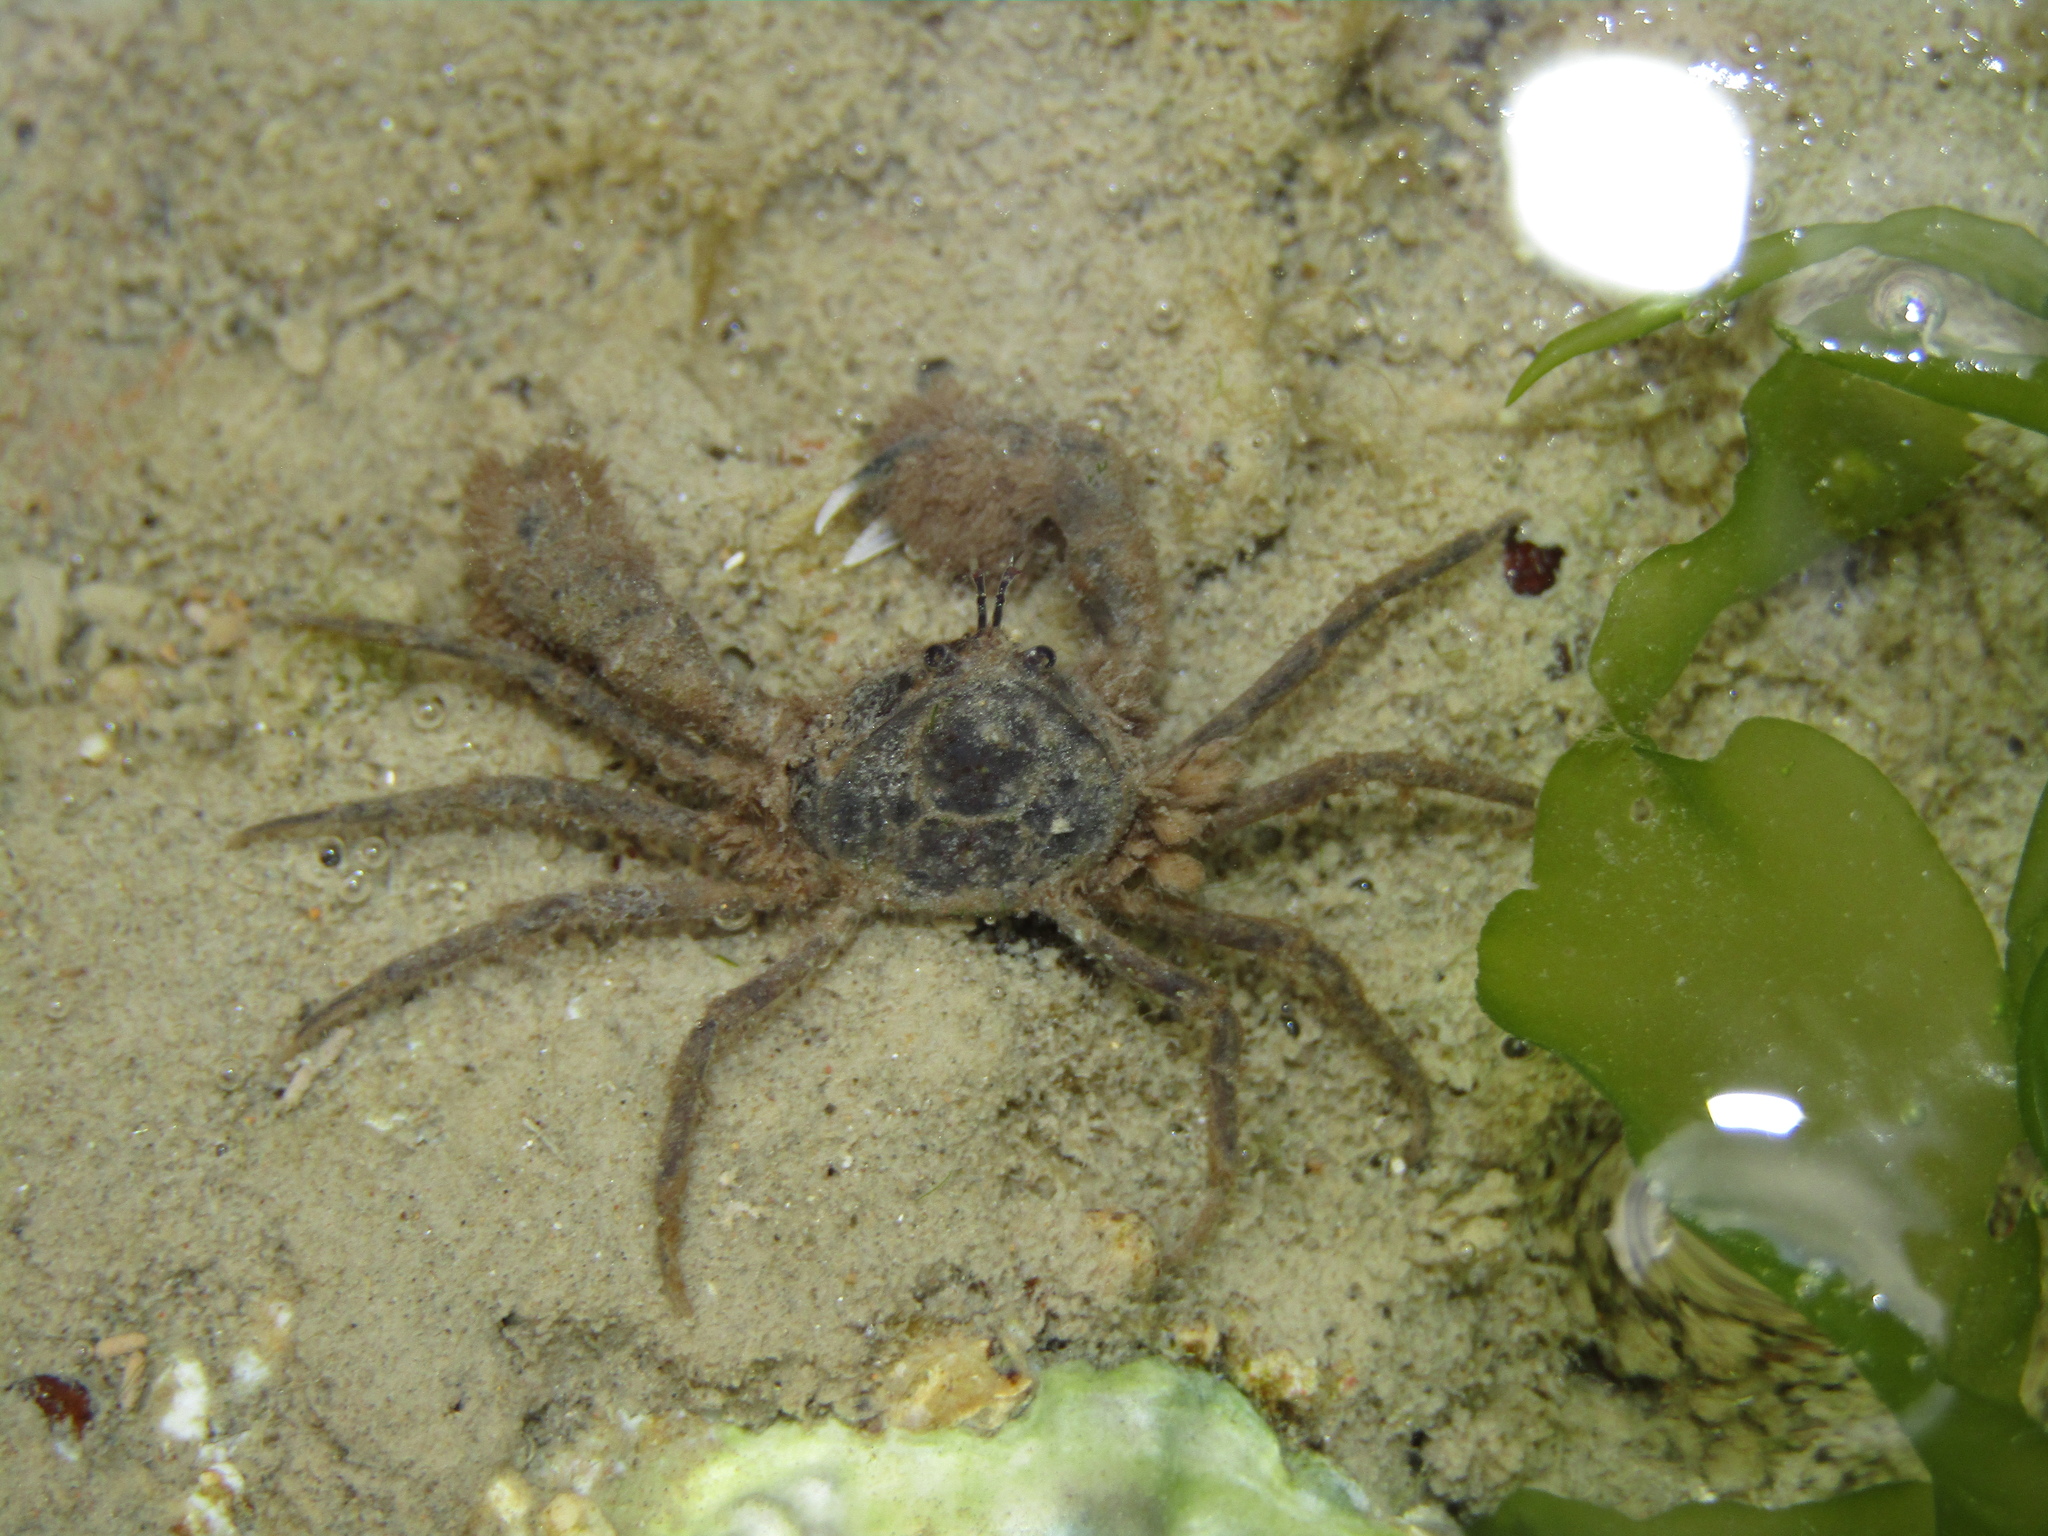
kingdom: Animalia
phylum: Arthropoda
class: Malacostraca
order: Decapoda
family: Hymenosomatidae
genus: Halicarcinus
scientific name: Halicarcinus whitei
